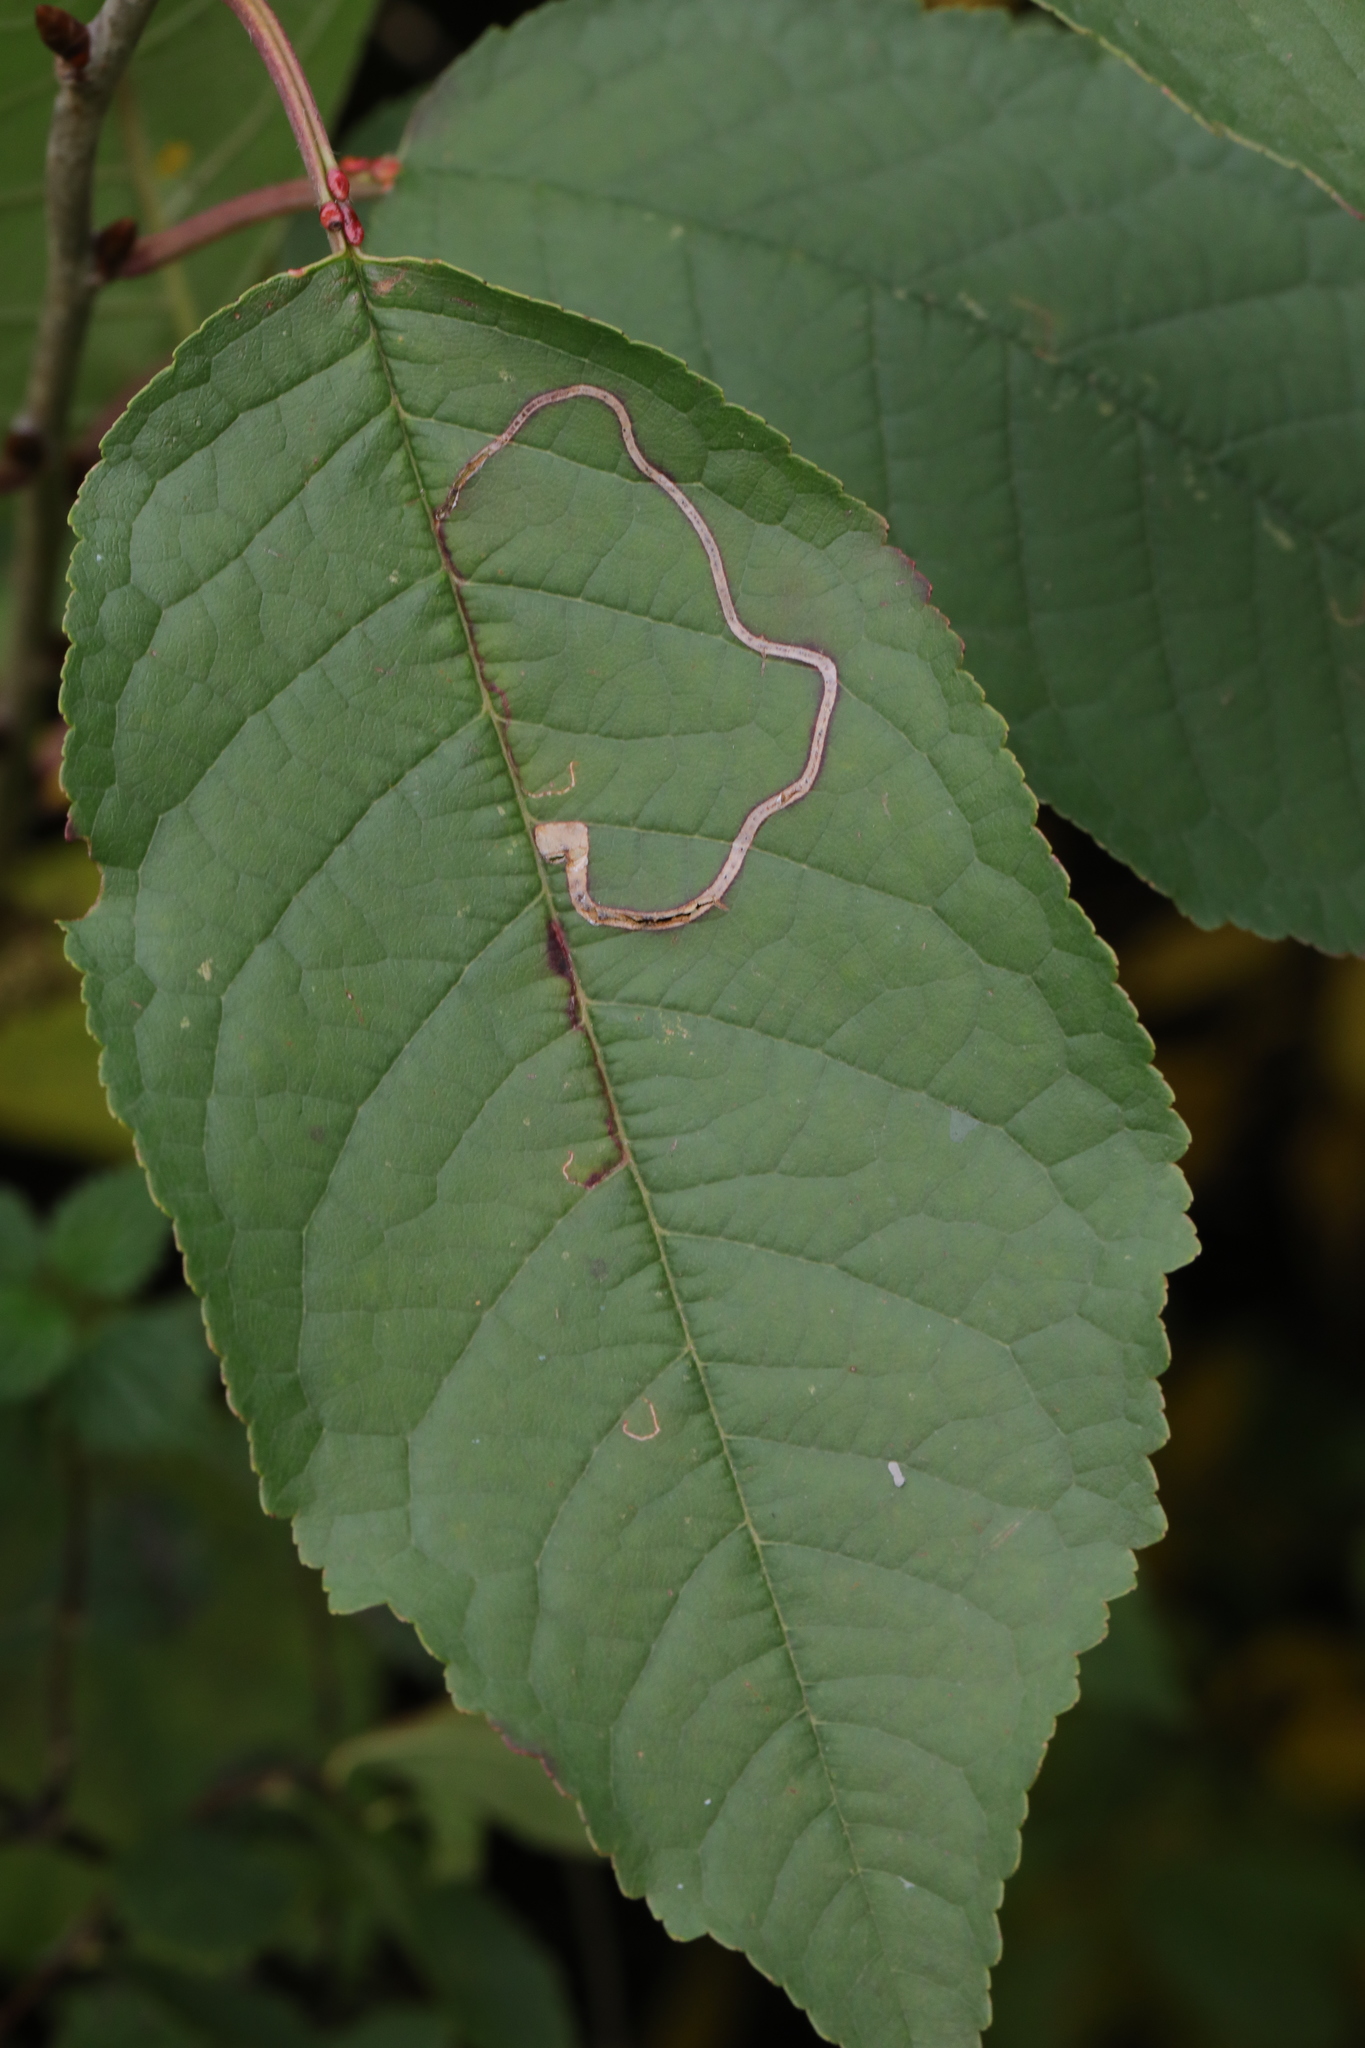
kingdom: Animalia
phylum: Arthropoda
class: Insecta
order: Lepidoptera
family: Lyonetiidae
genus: Lyonetia
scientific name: Lyonetia clerkella
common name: Apple leaf miner
